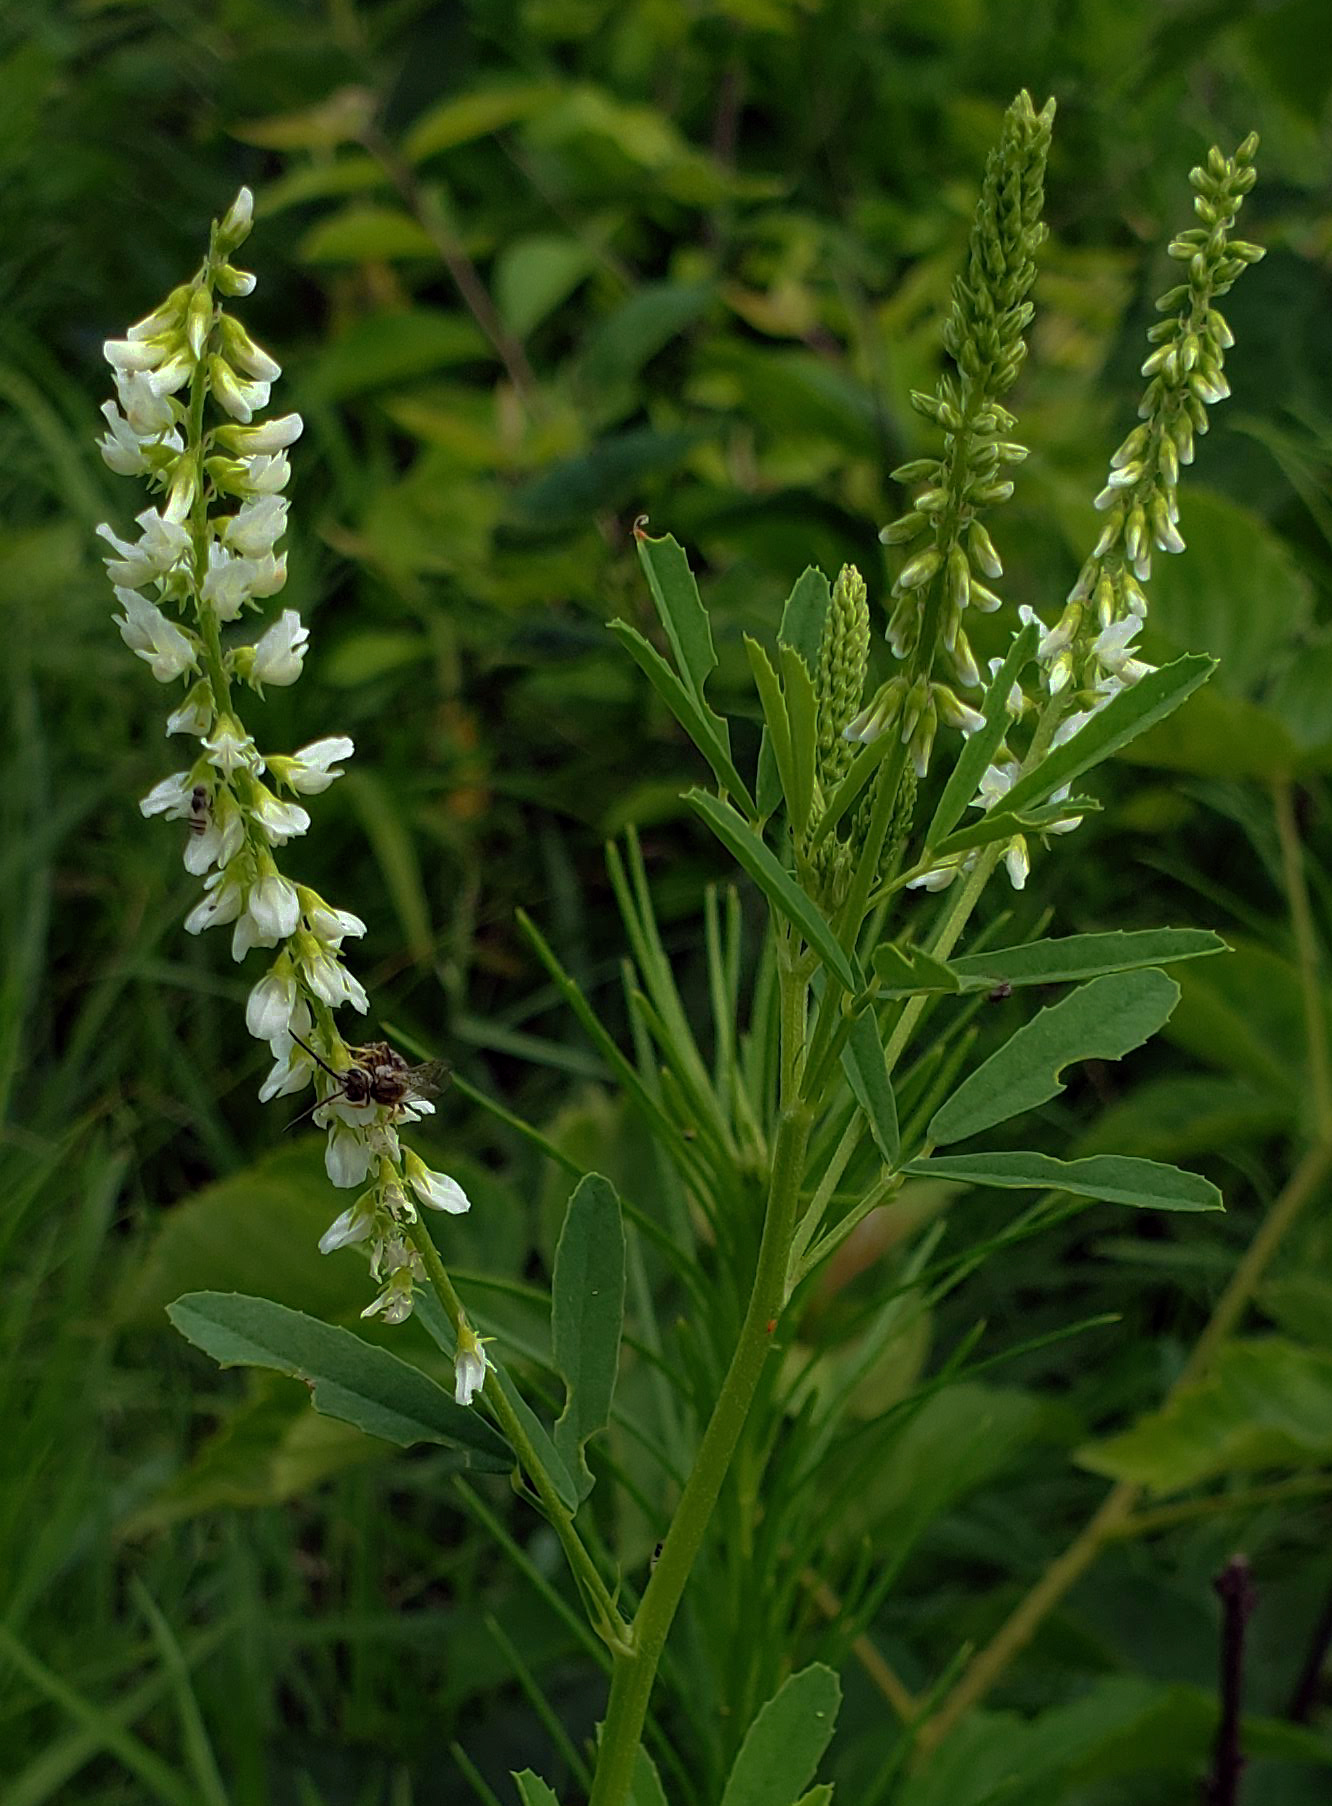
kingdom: Plantae
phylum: Tracheophyta
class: Magnoliopsida
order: Fabales
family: Fabaceae
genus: Melilotus
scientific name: Melilotus albus
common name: White melilot
